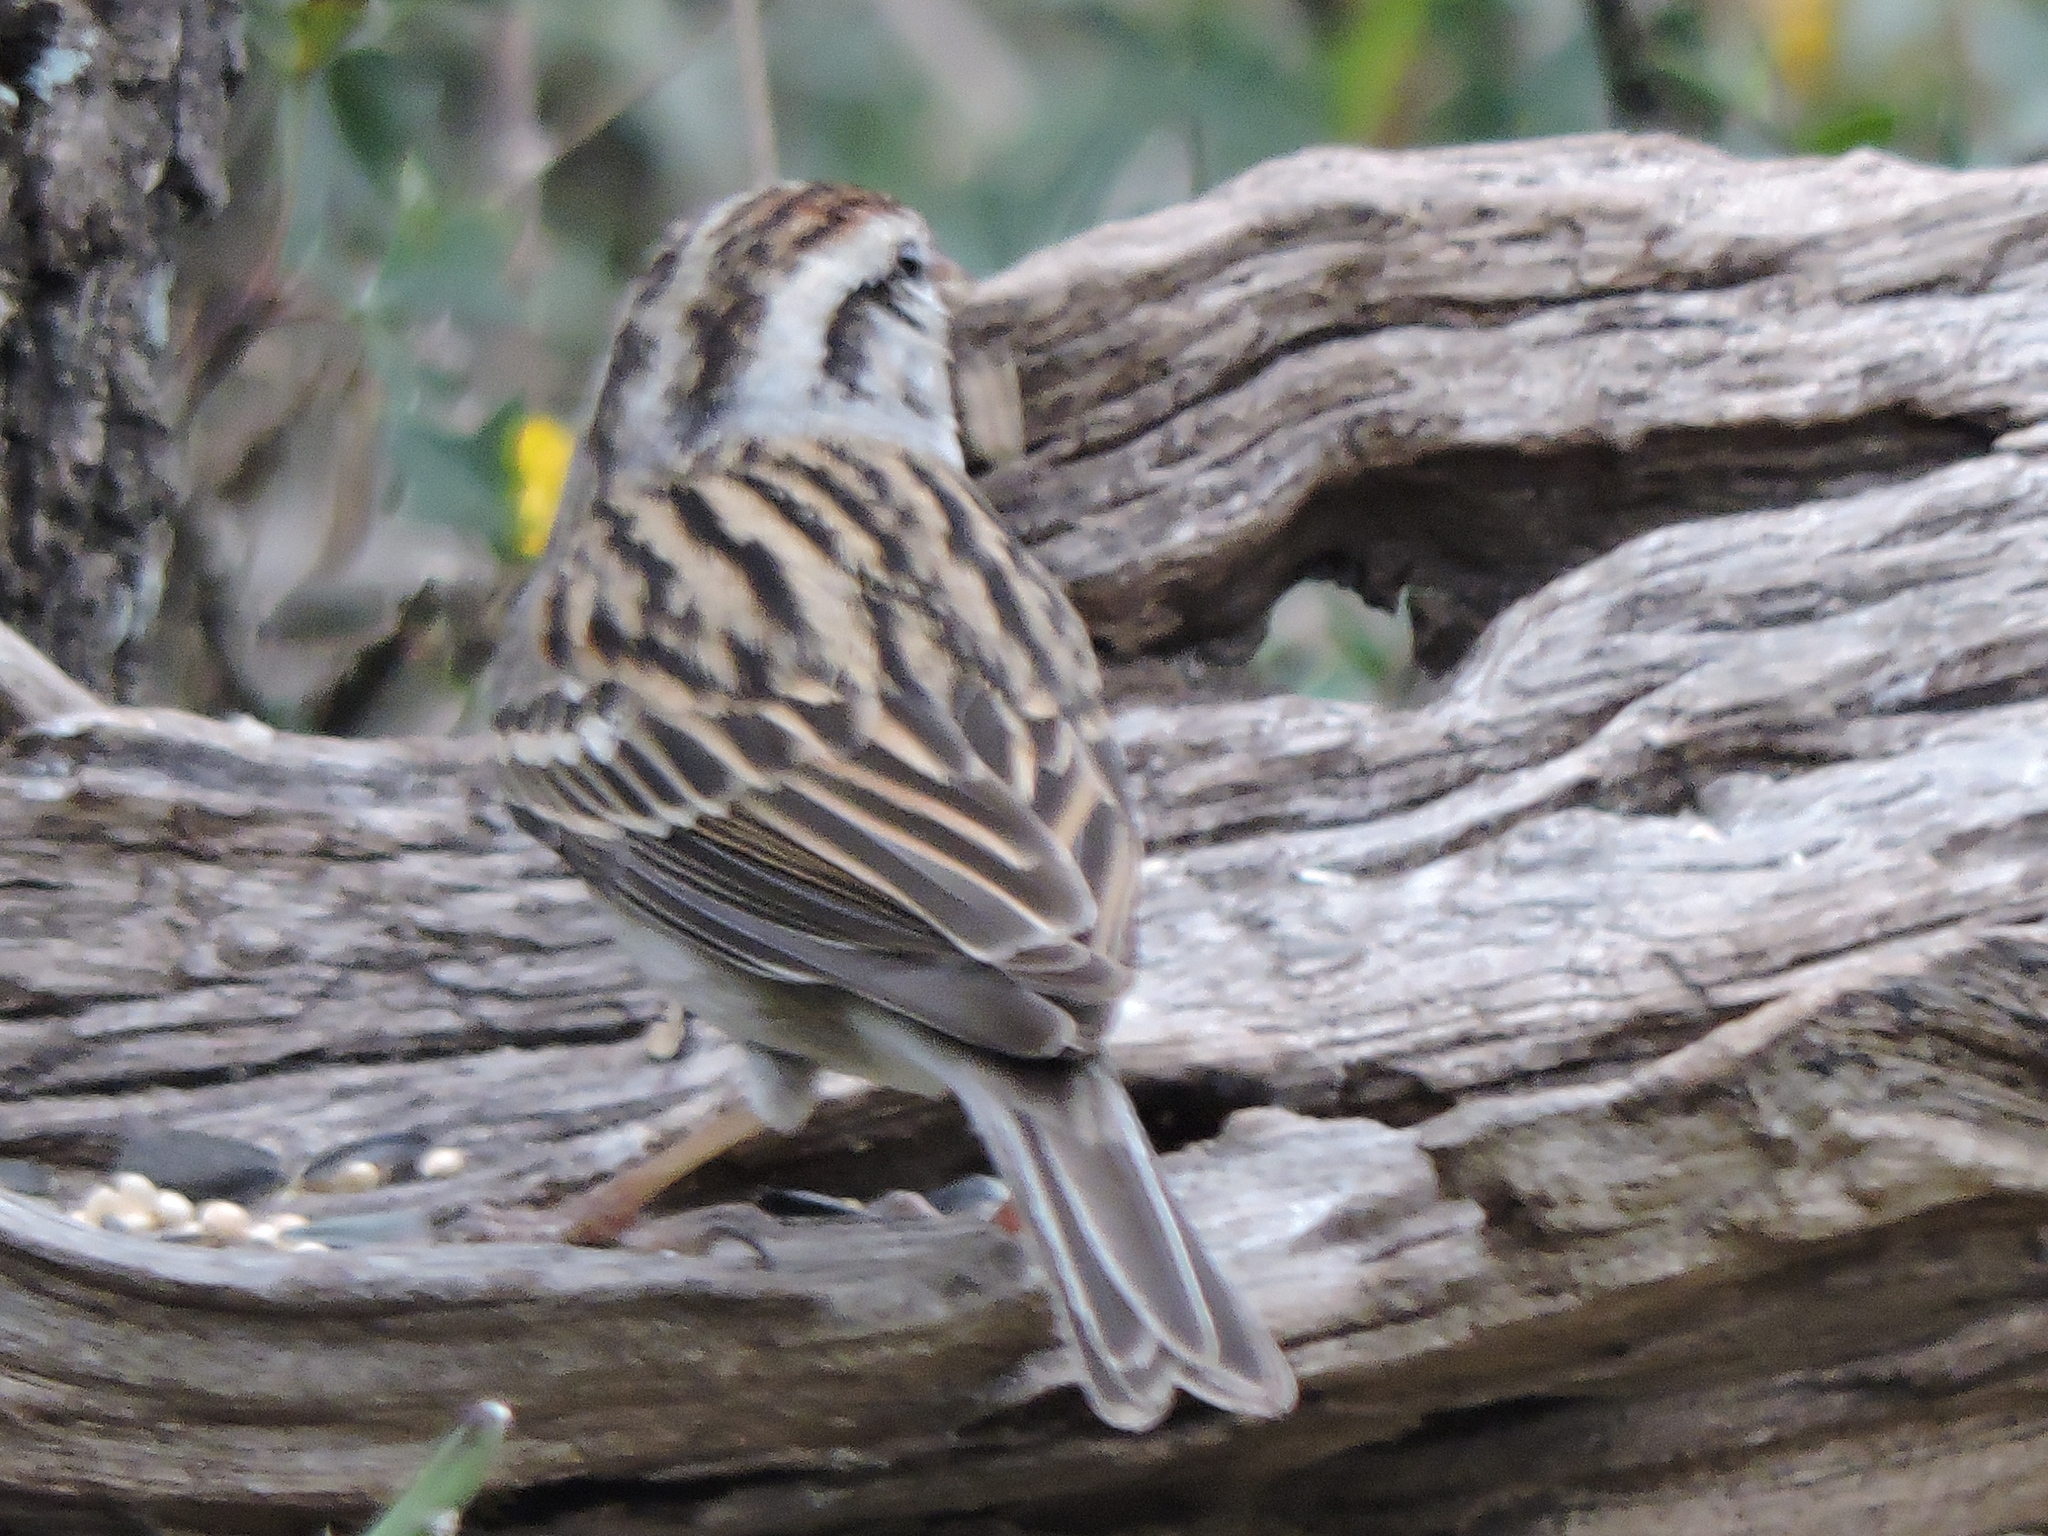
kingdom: Animalia
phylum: Chordata
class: Aves
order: Passeriformes
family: Passerellidae
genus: Spizella
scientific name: Spizella passerina
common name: Chipping sparrow
